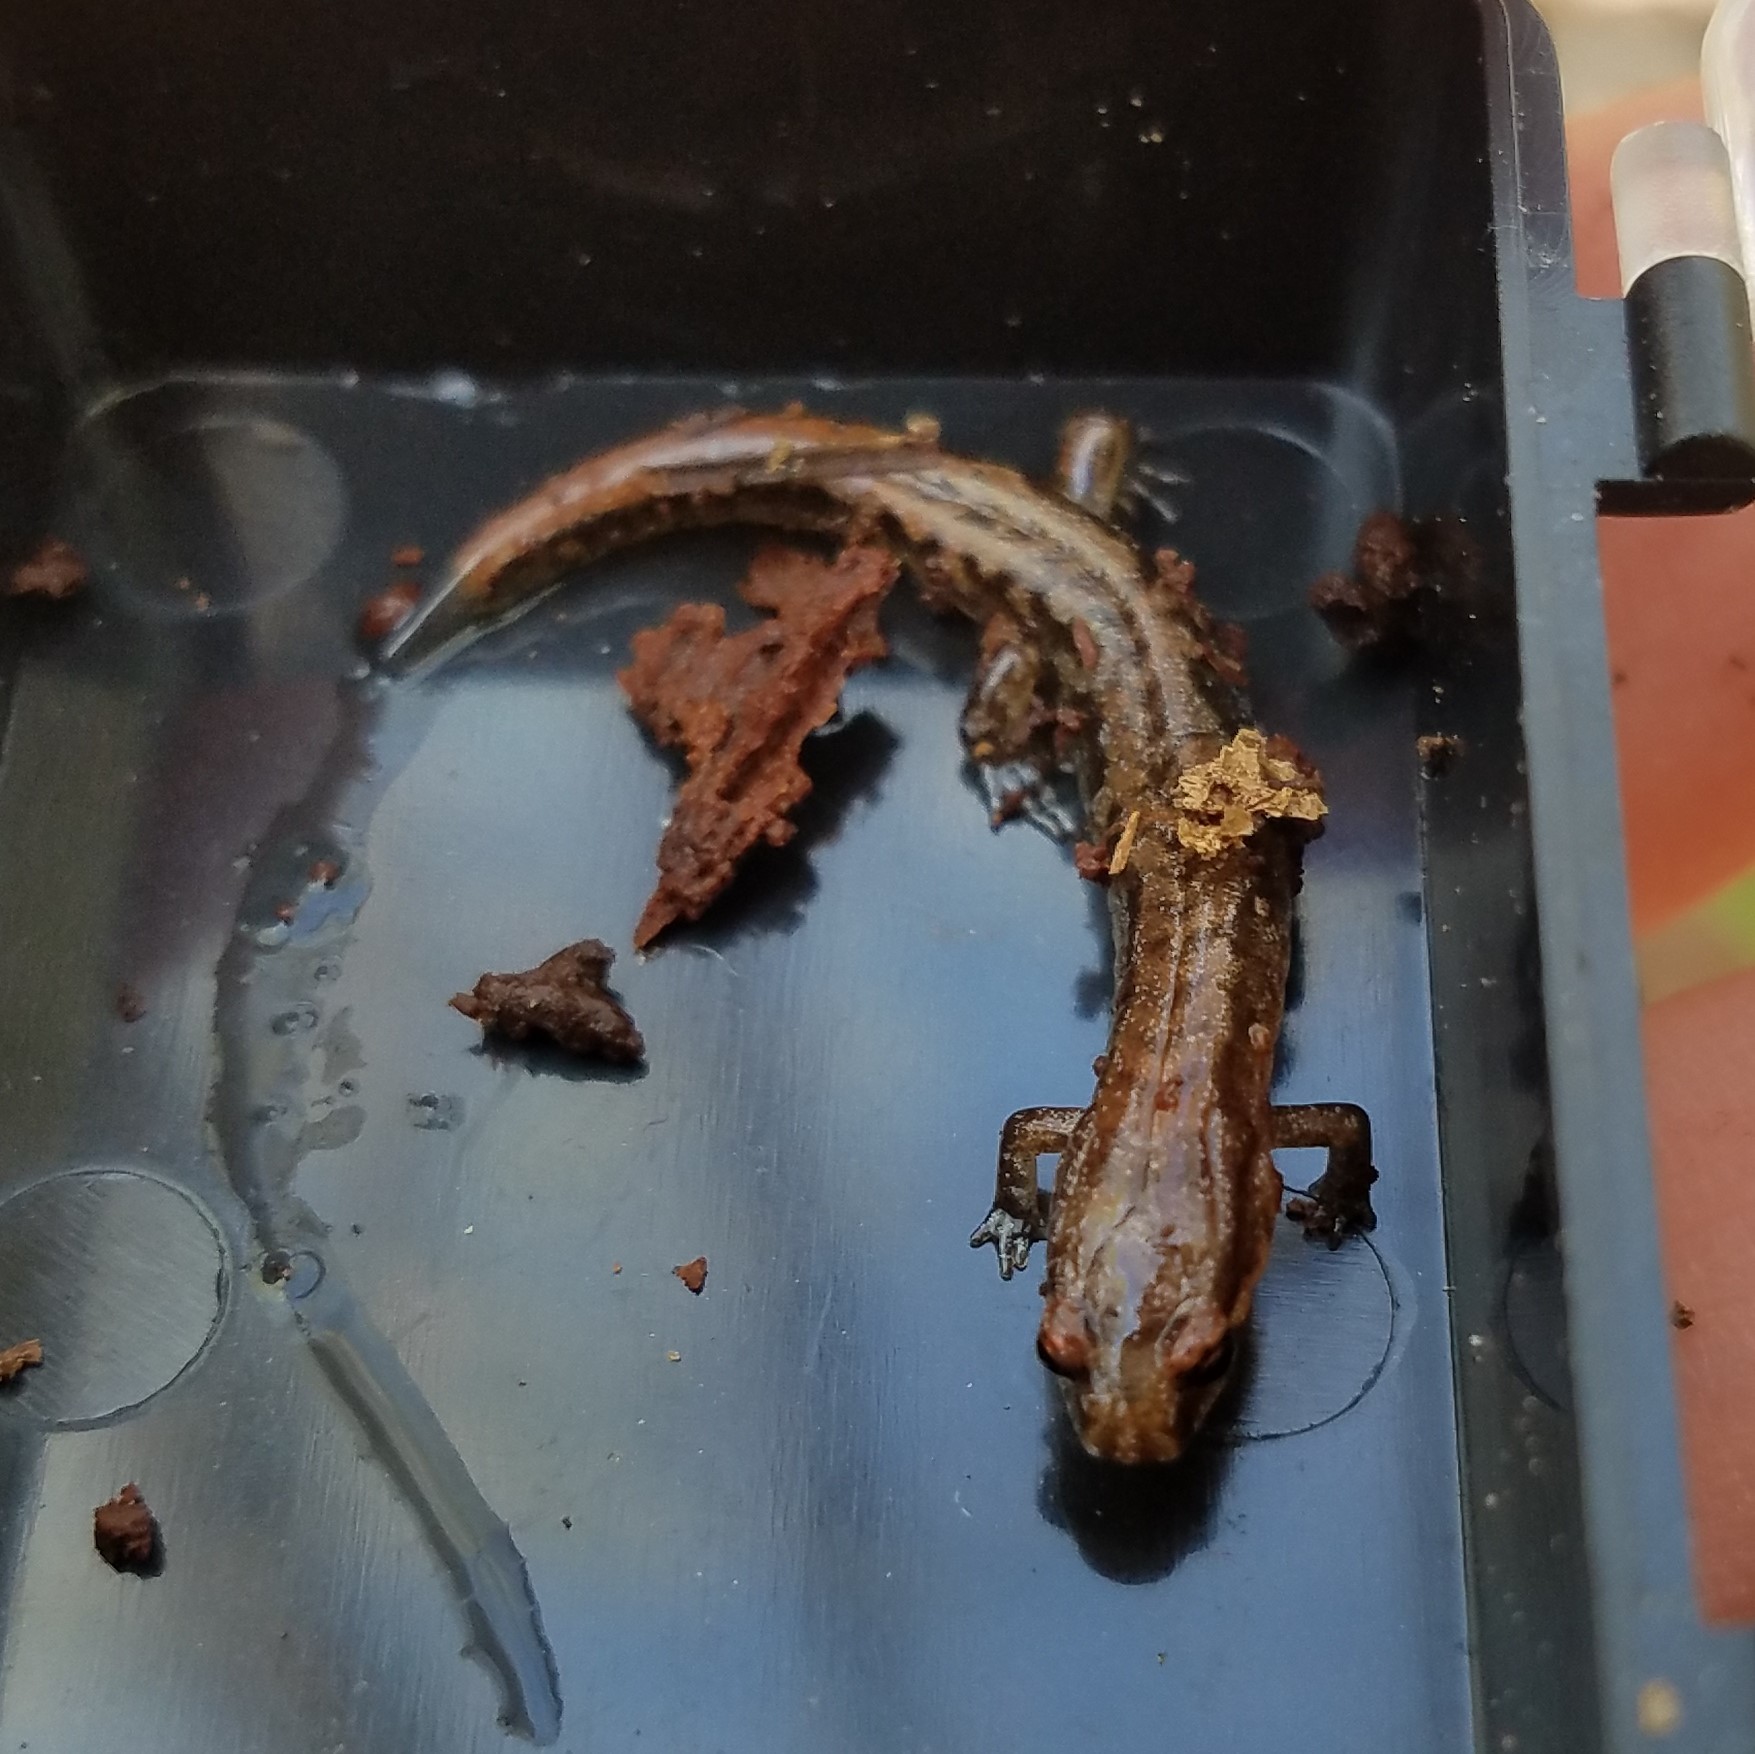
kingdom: Animalia
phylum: Chordata
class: Amphibia
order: Caudata
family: Plethodontidae
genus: Desmognathus
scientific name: Desmognathus aeneus
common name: Seepage salamander
